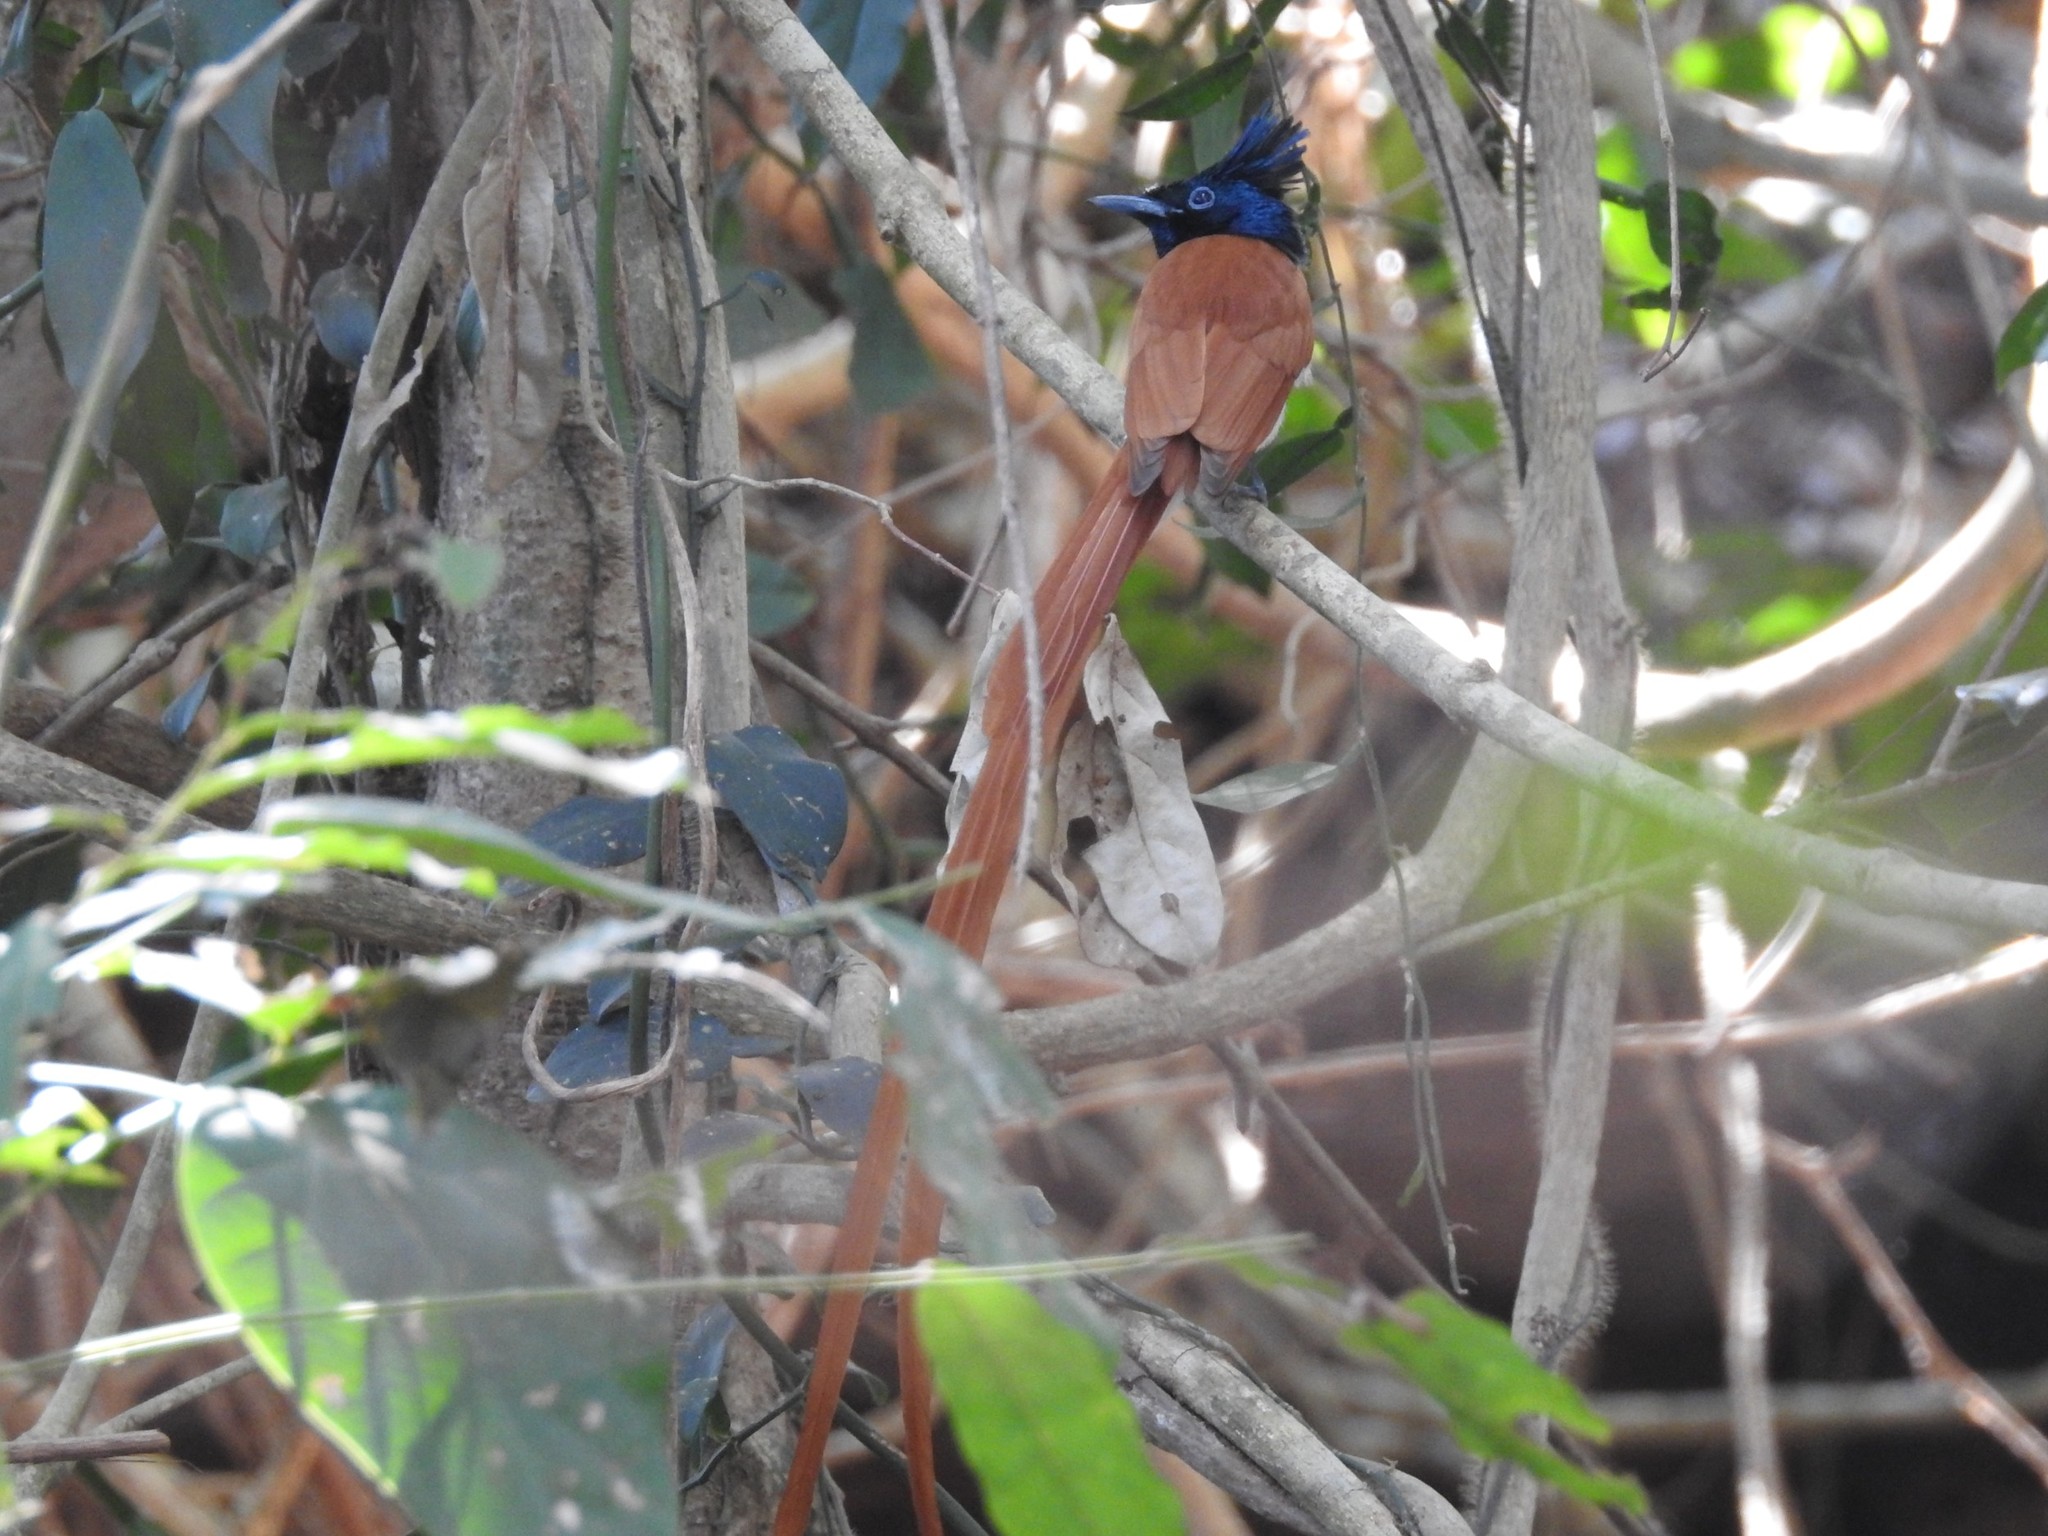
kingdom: Animalia
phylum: Chordata
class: Aves
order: Passeriformes
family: Monarchidae
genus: Terpsiphone
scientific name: Terpsiphone paradisi
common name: Indian paradise flycatcher
